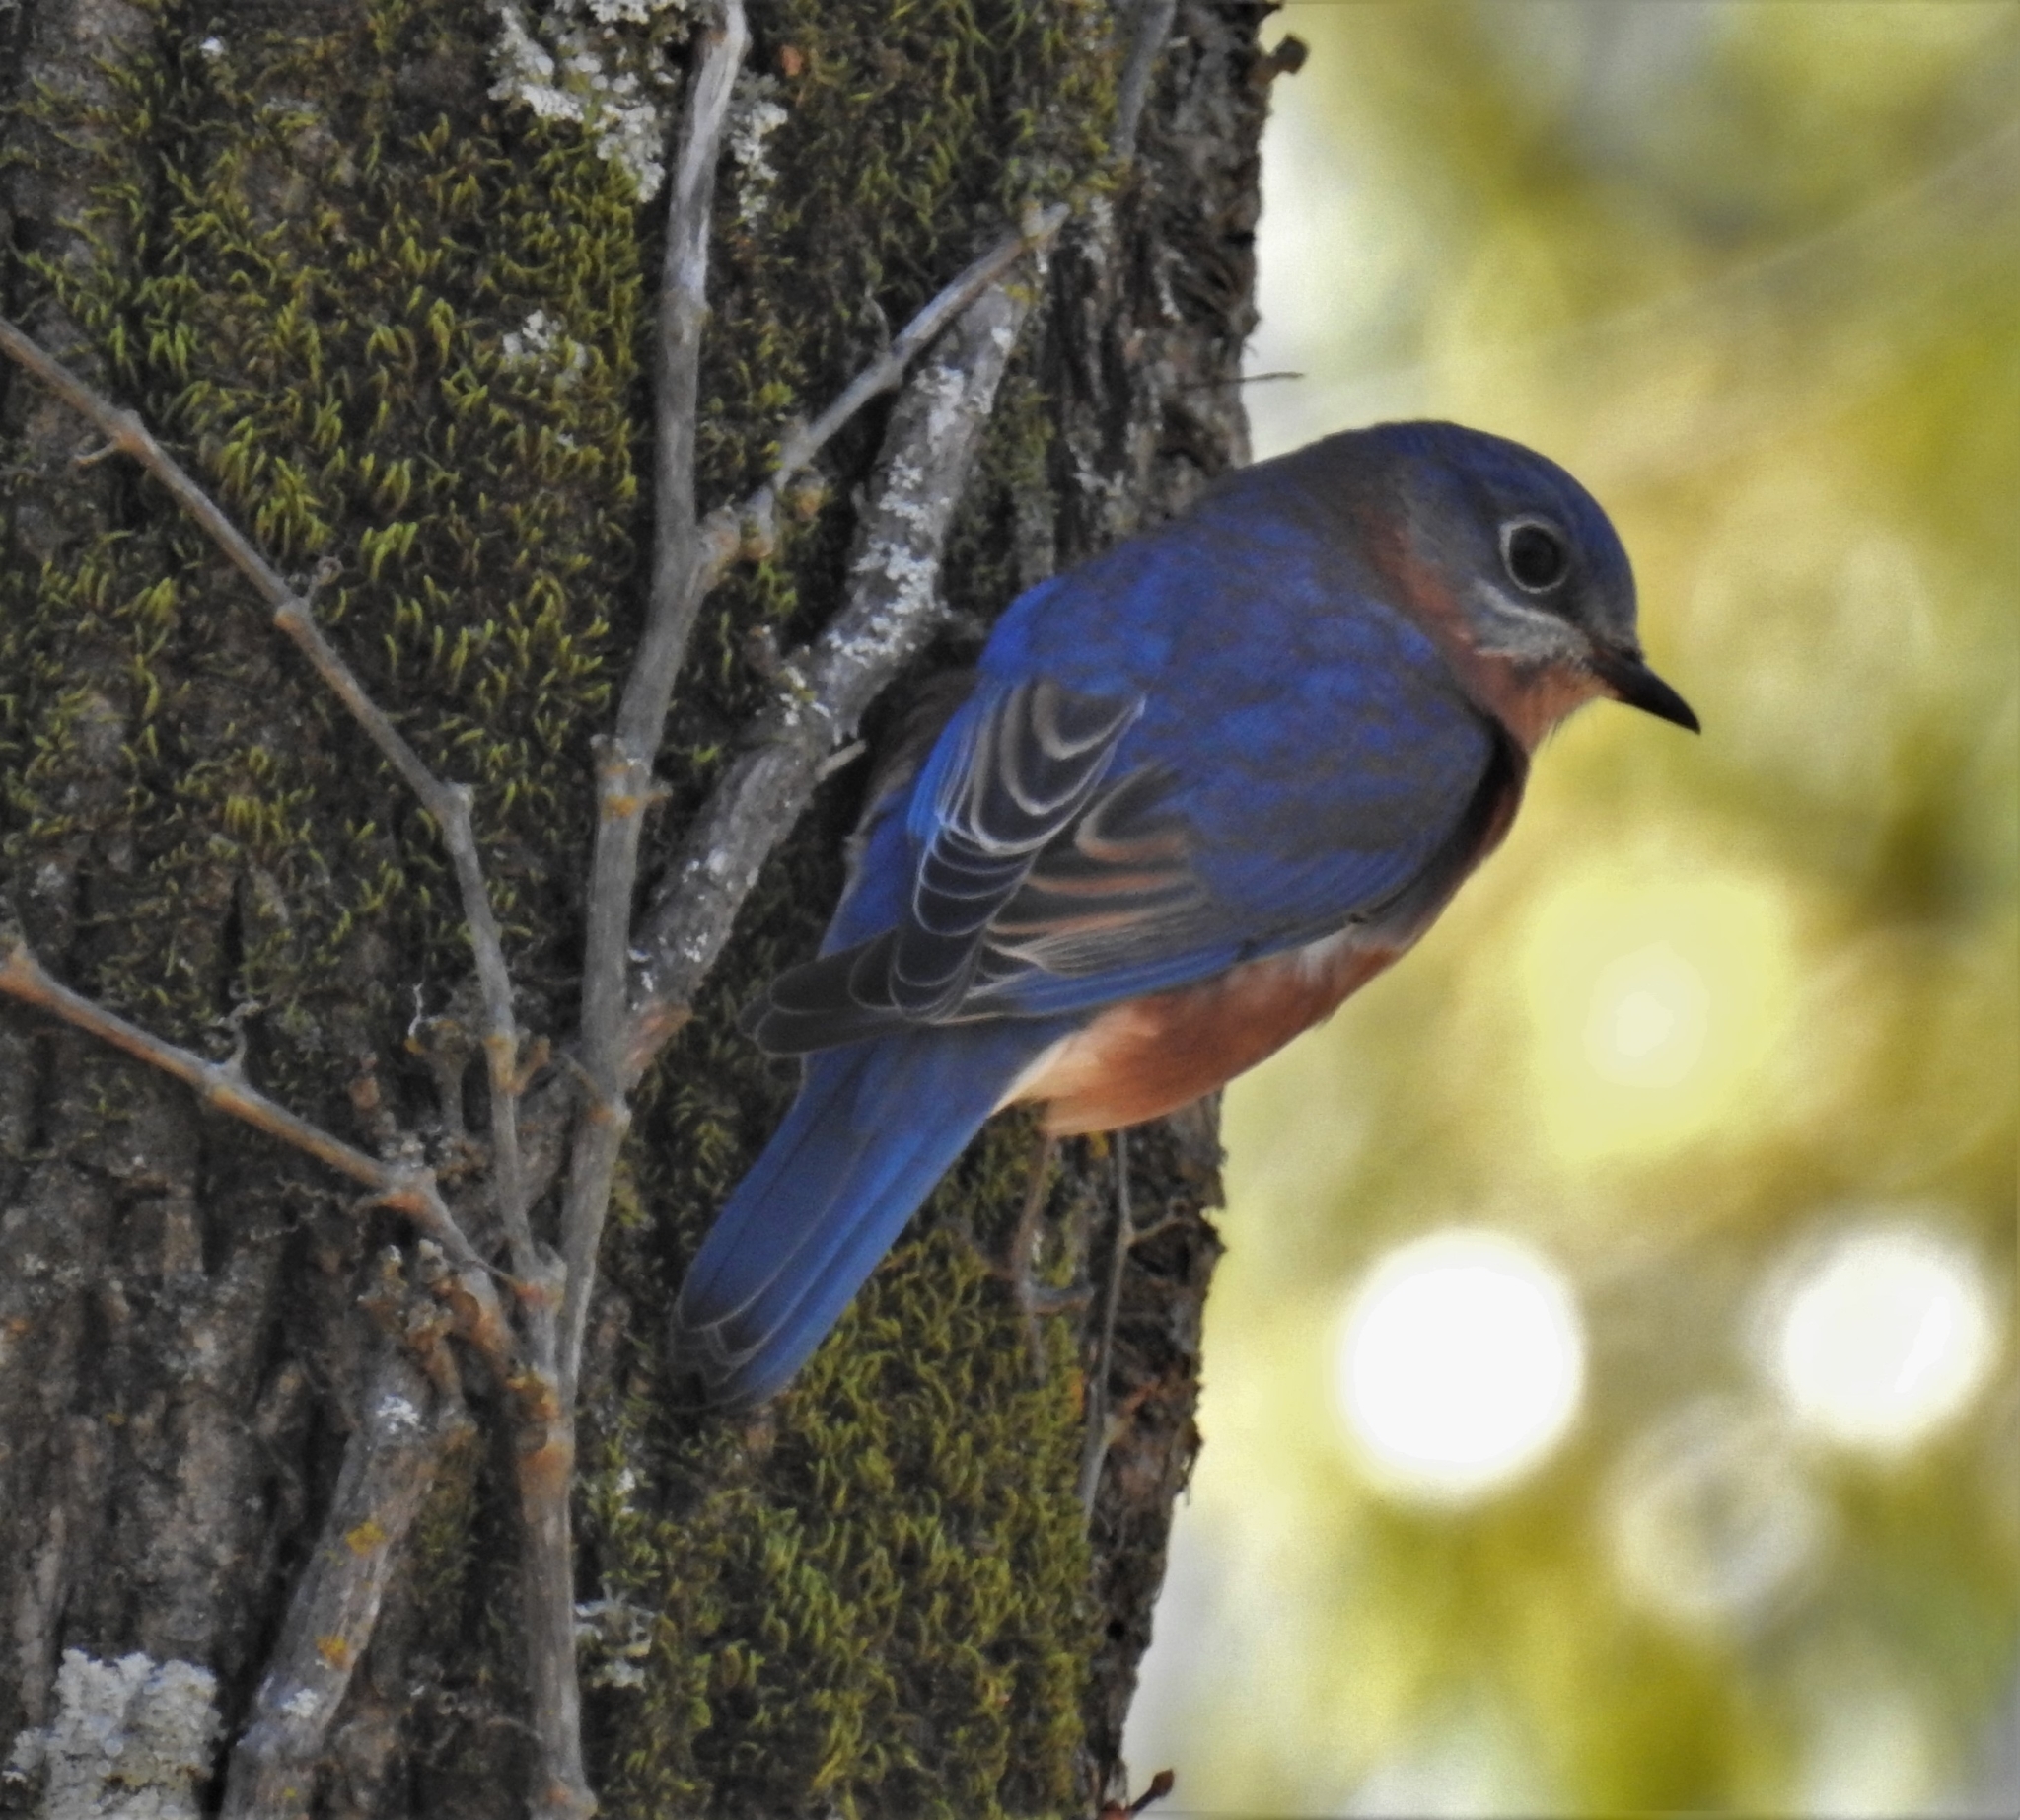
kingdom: Animalia
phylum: Chordata
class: Aves
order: Passeriformes
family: Turdidae
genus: Sialia
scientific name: Sialia sialis
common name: Eastern bluebird
